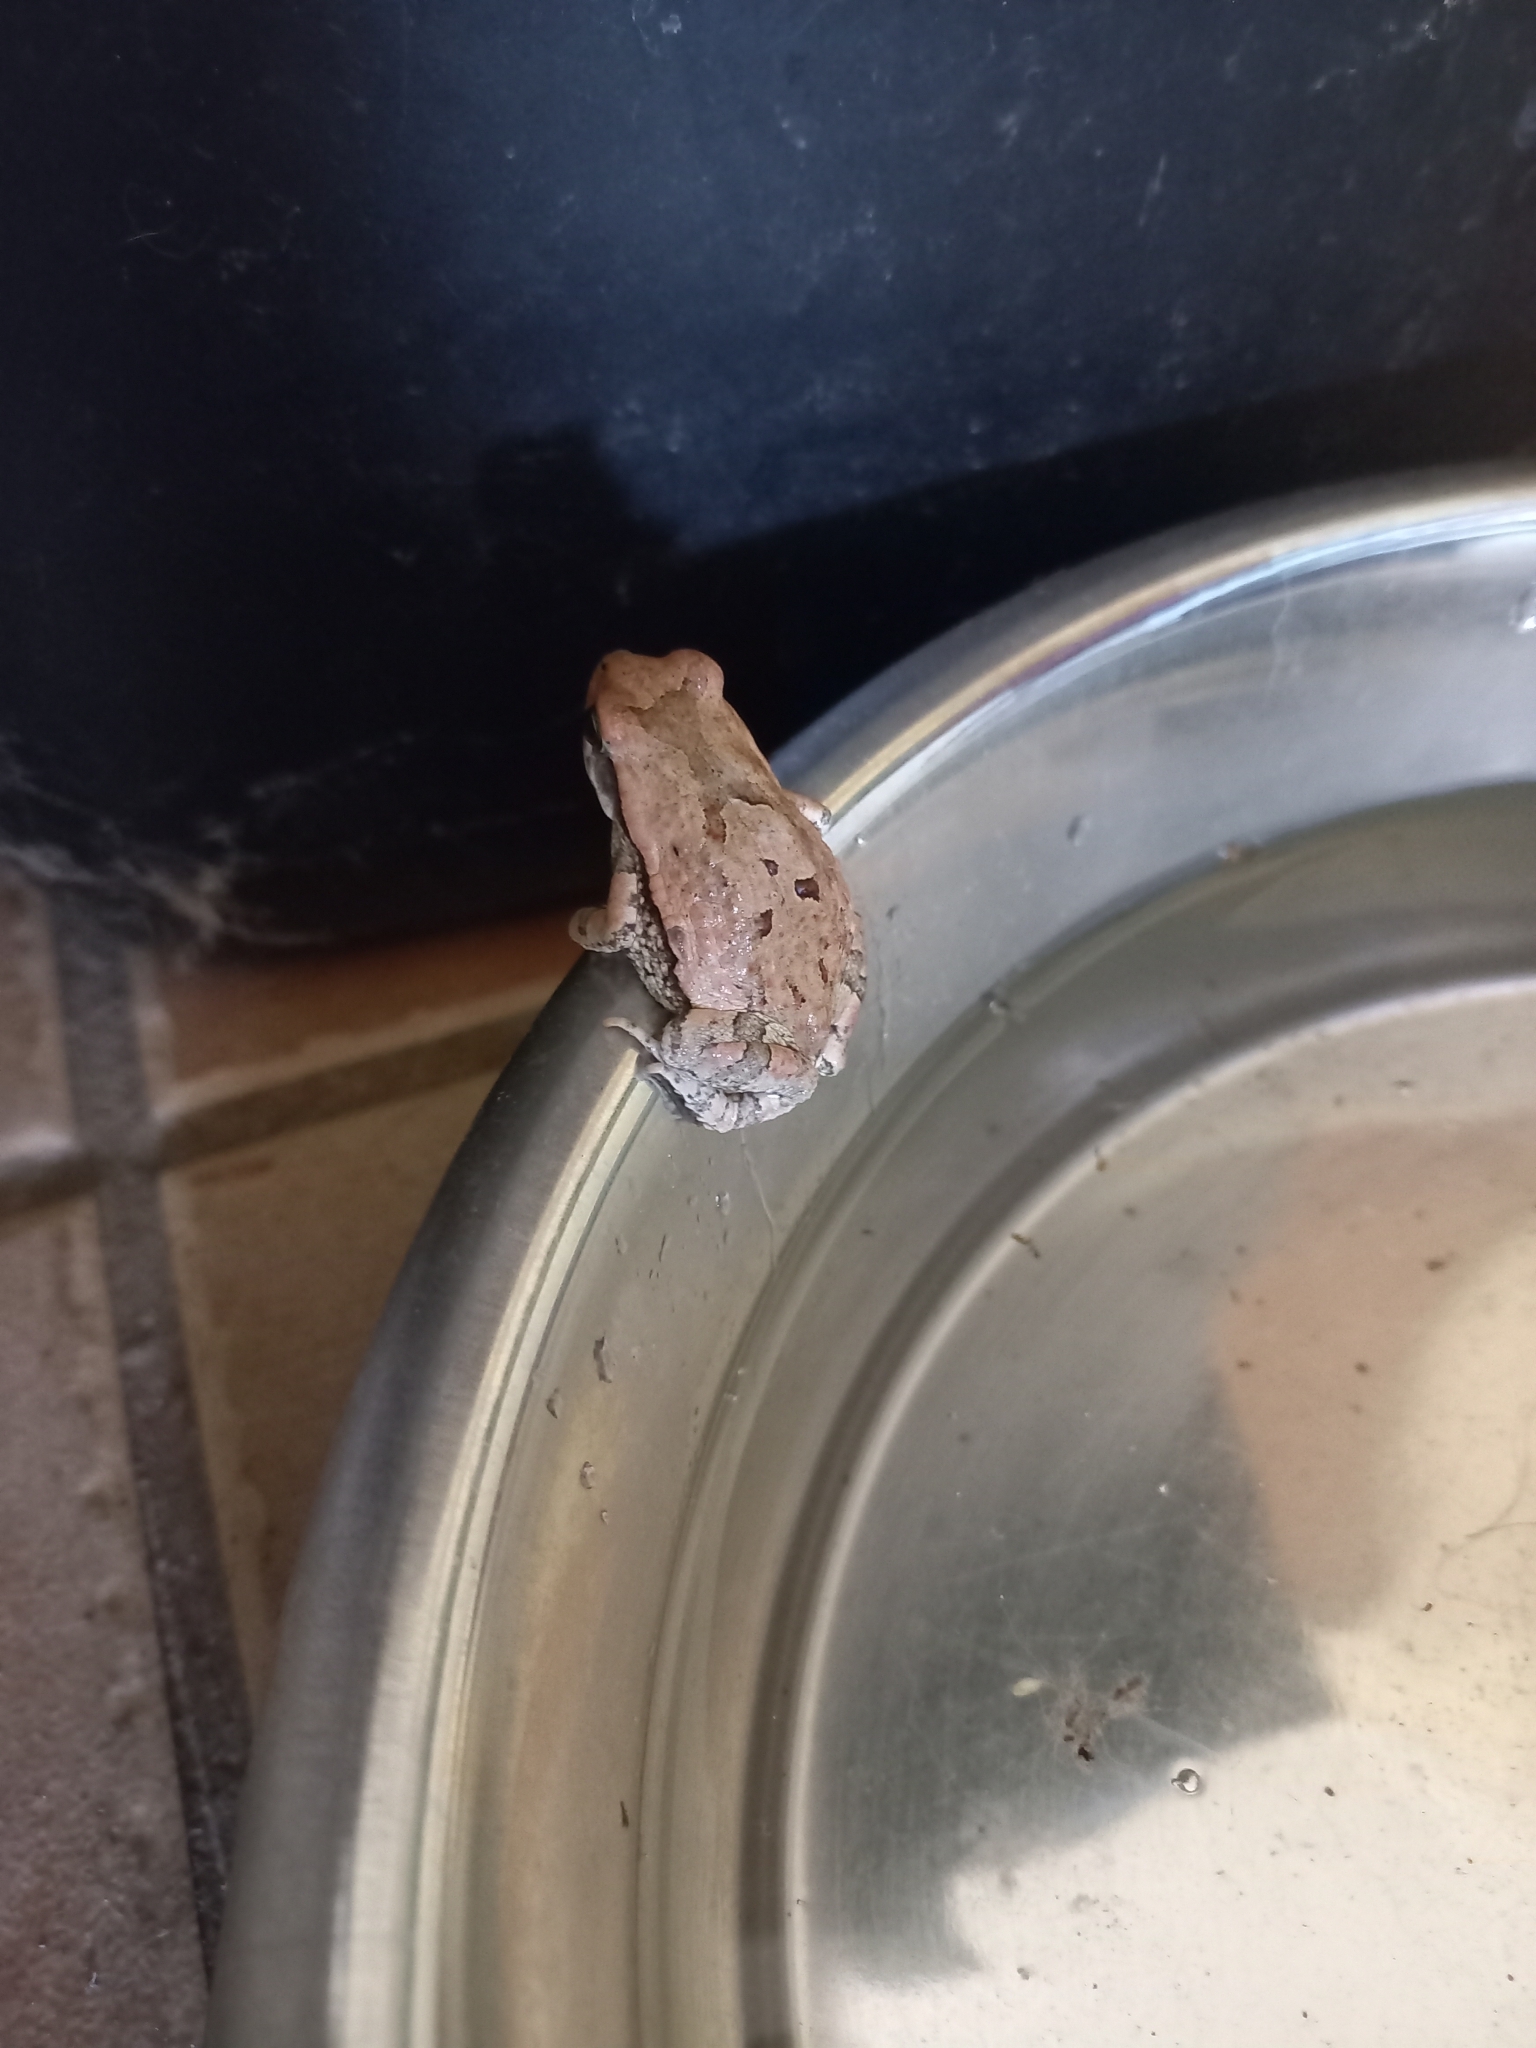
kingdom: Animalia
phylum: Chordata
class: Amphibia
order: Anura
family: Bufonidae
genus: Schismaderma
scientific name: Schismaderma carens
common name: African split-skin toad
